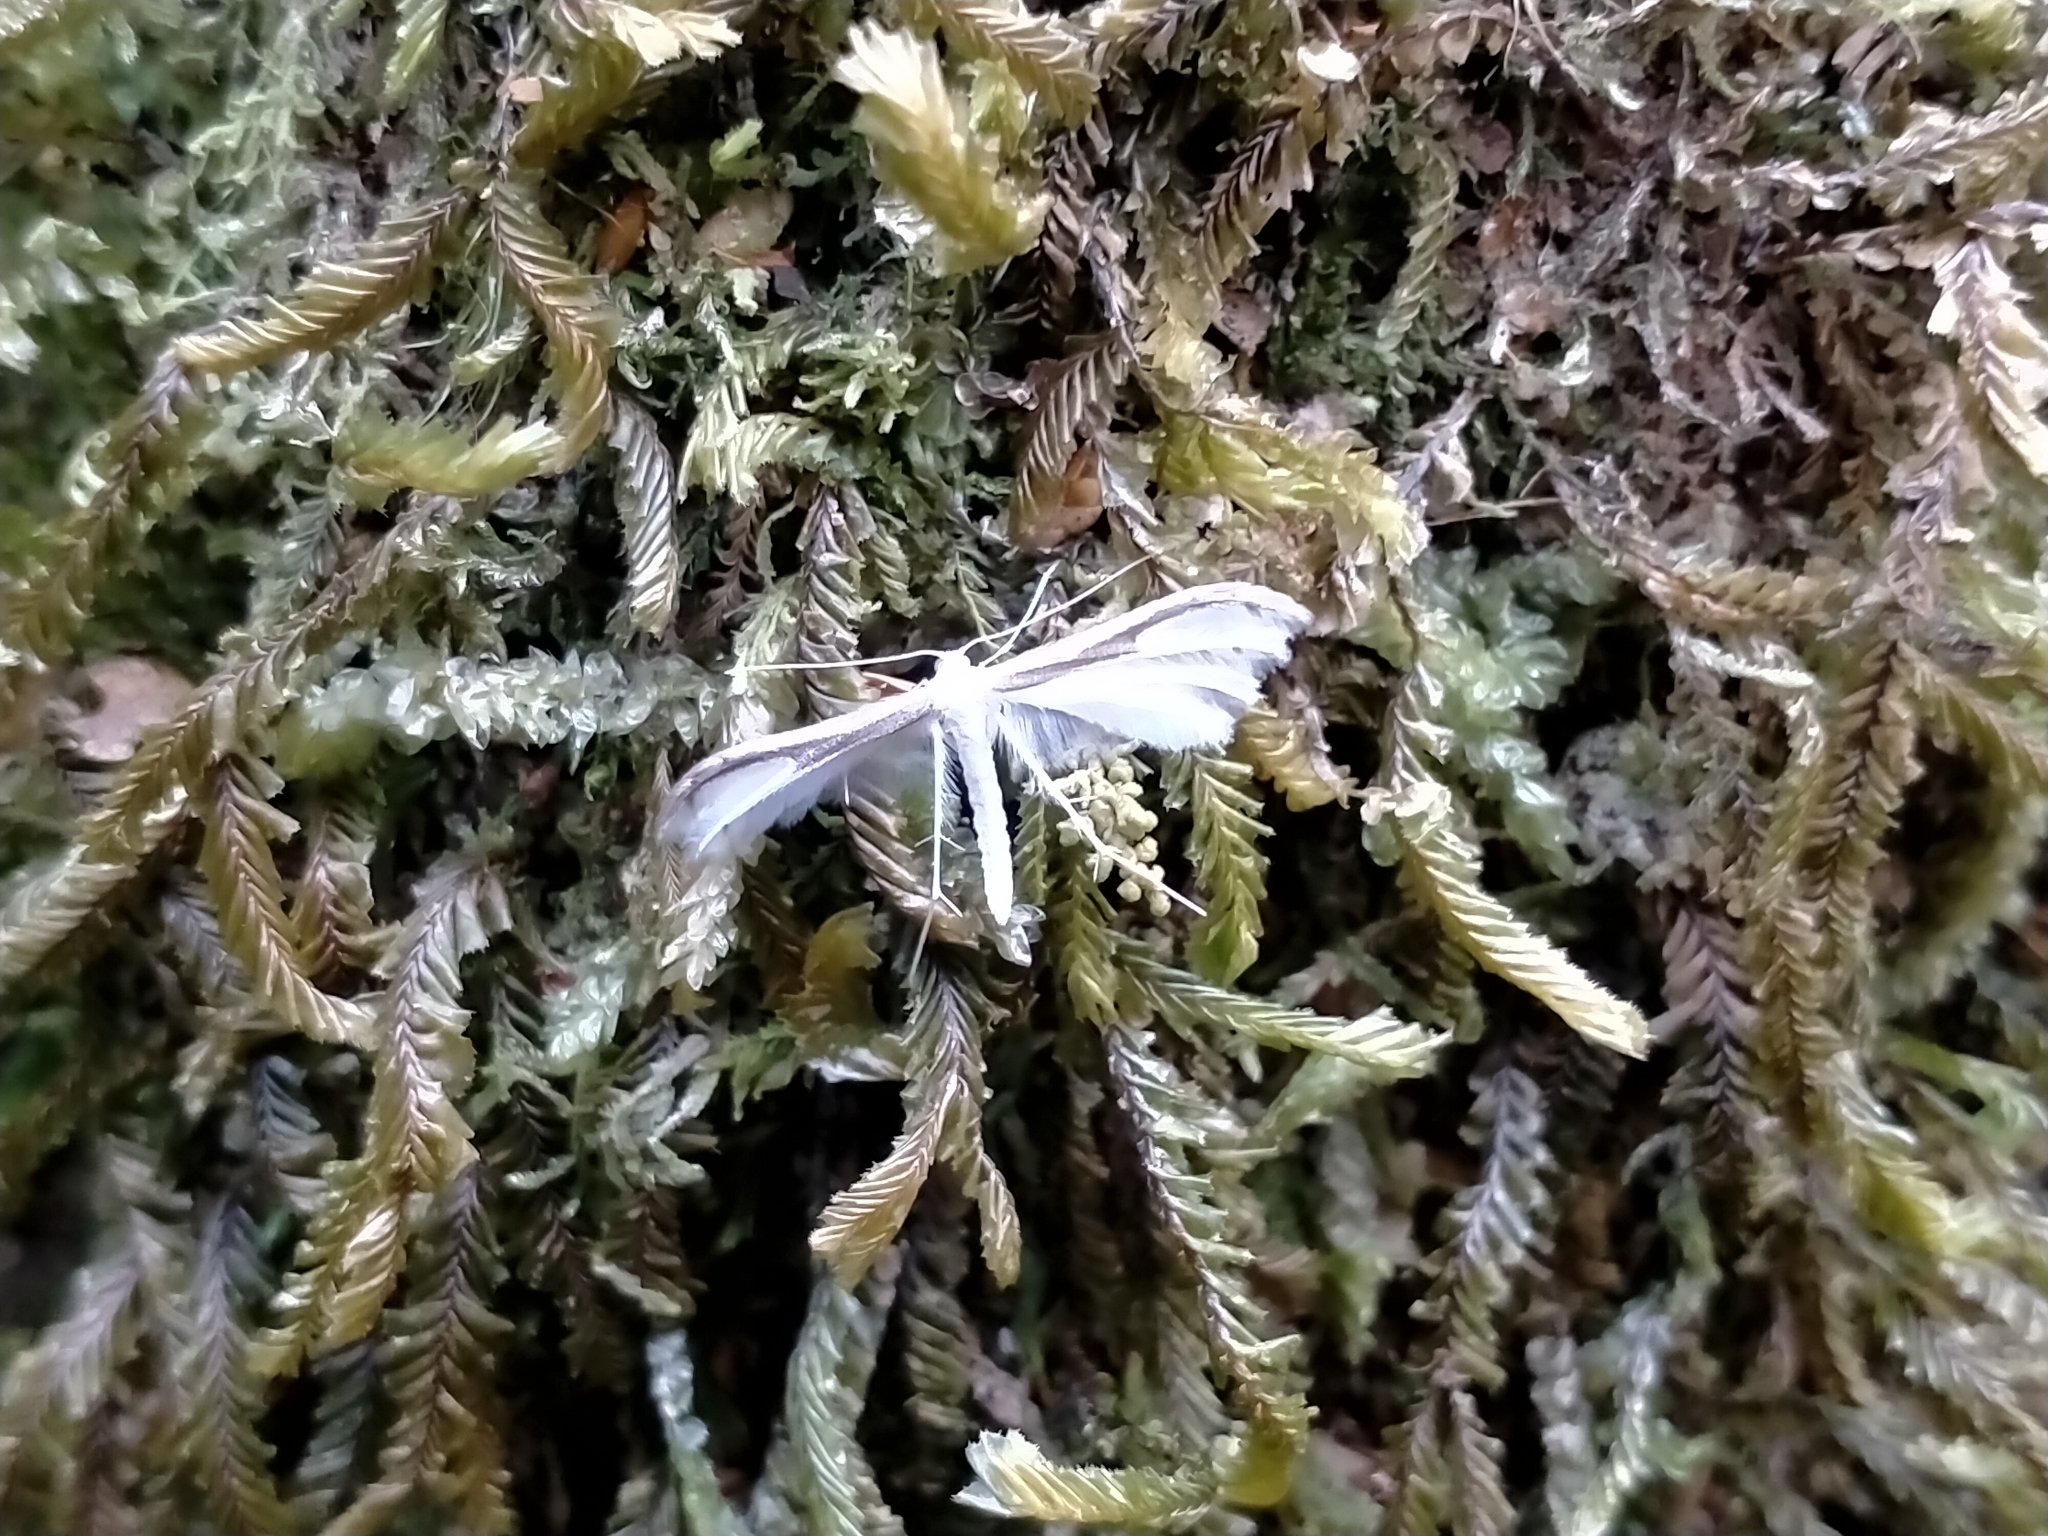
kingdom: Animalia
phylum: Arthropoda
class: Insecta
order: Lepidoptera
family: Pterophoridae
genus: Pterophorus
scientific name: Pterophorus monospilalis
